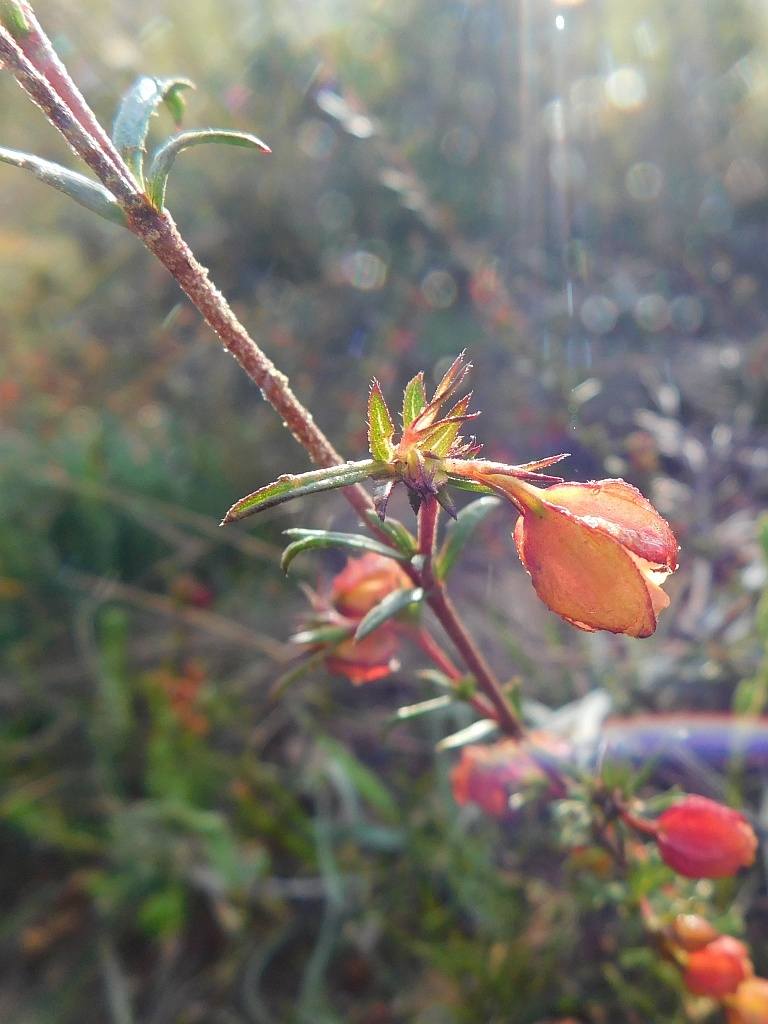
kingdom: Plantae
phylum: Tracheophyta
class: Magnoliopsida
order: Malvales
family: Malvaceae
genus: Hermannia
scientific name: Hermannia angularis
